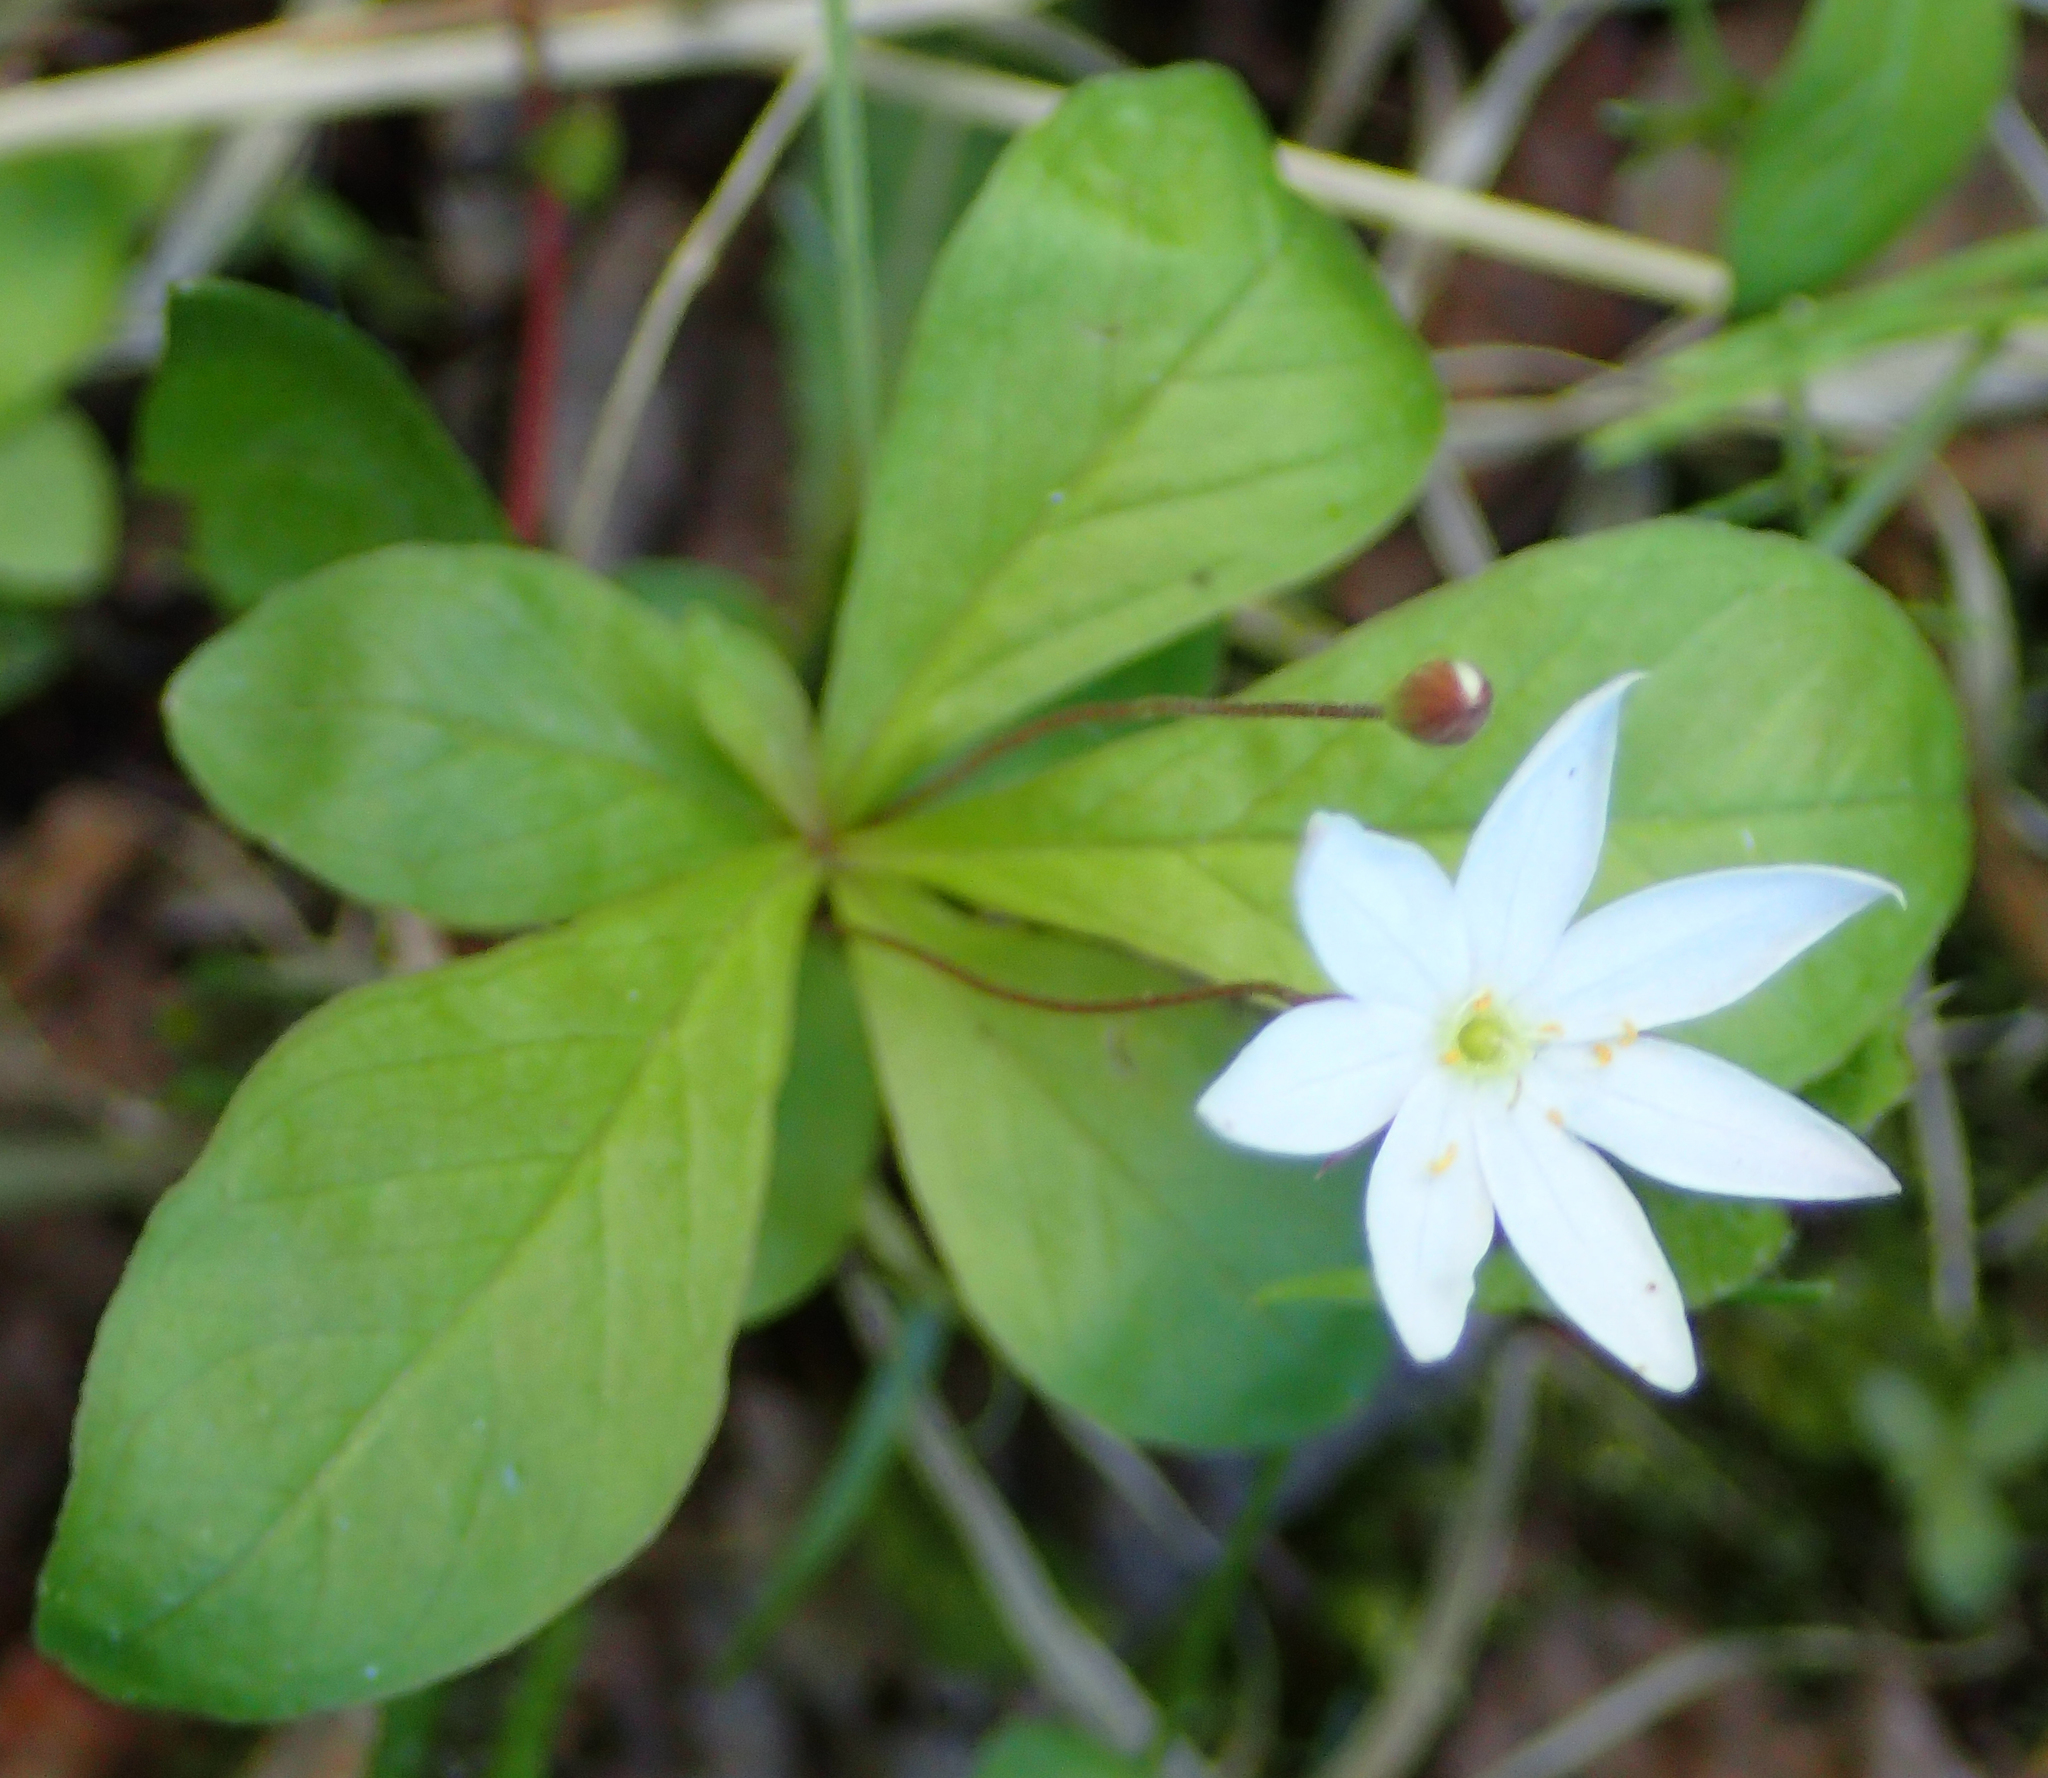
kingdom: Plantae
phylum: Tracheophyta
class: Magnoliopsida
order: Ericales
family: Primulaceae
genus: Lysimachia
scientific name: Lysimachia europaea
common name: Arctic starflower
